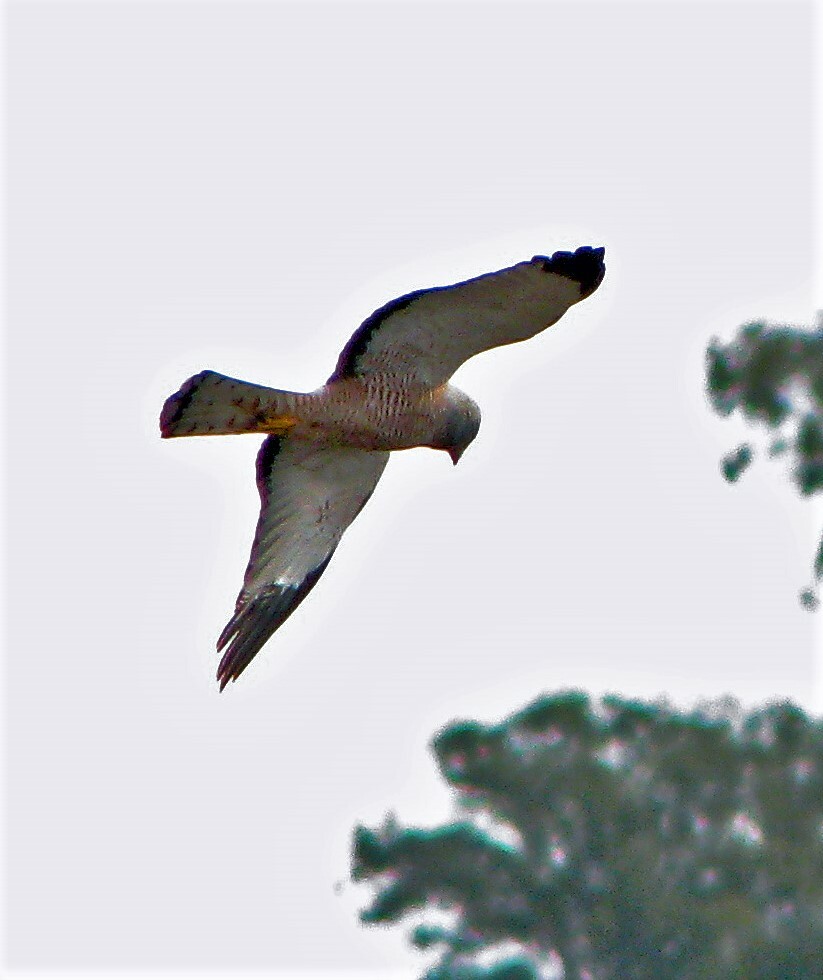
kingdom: Animalia
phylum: Chordata
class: Aves
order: Accipitriformes
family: Accipitridae
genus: Circus
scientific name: Circus cinereus
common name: Cinereous harrier
